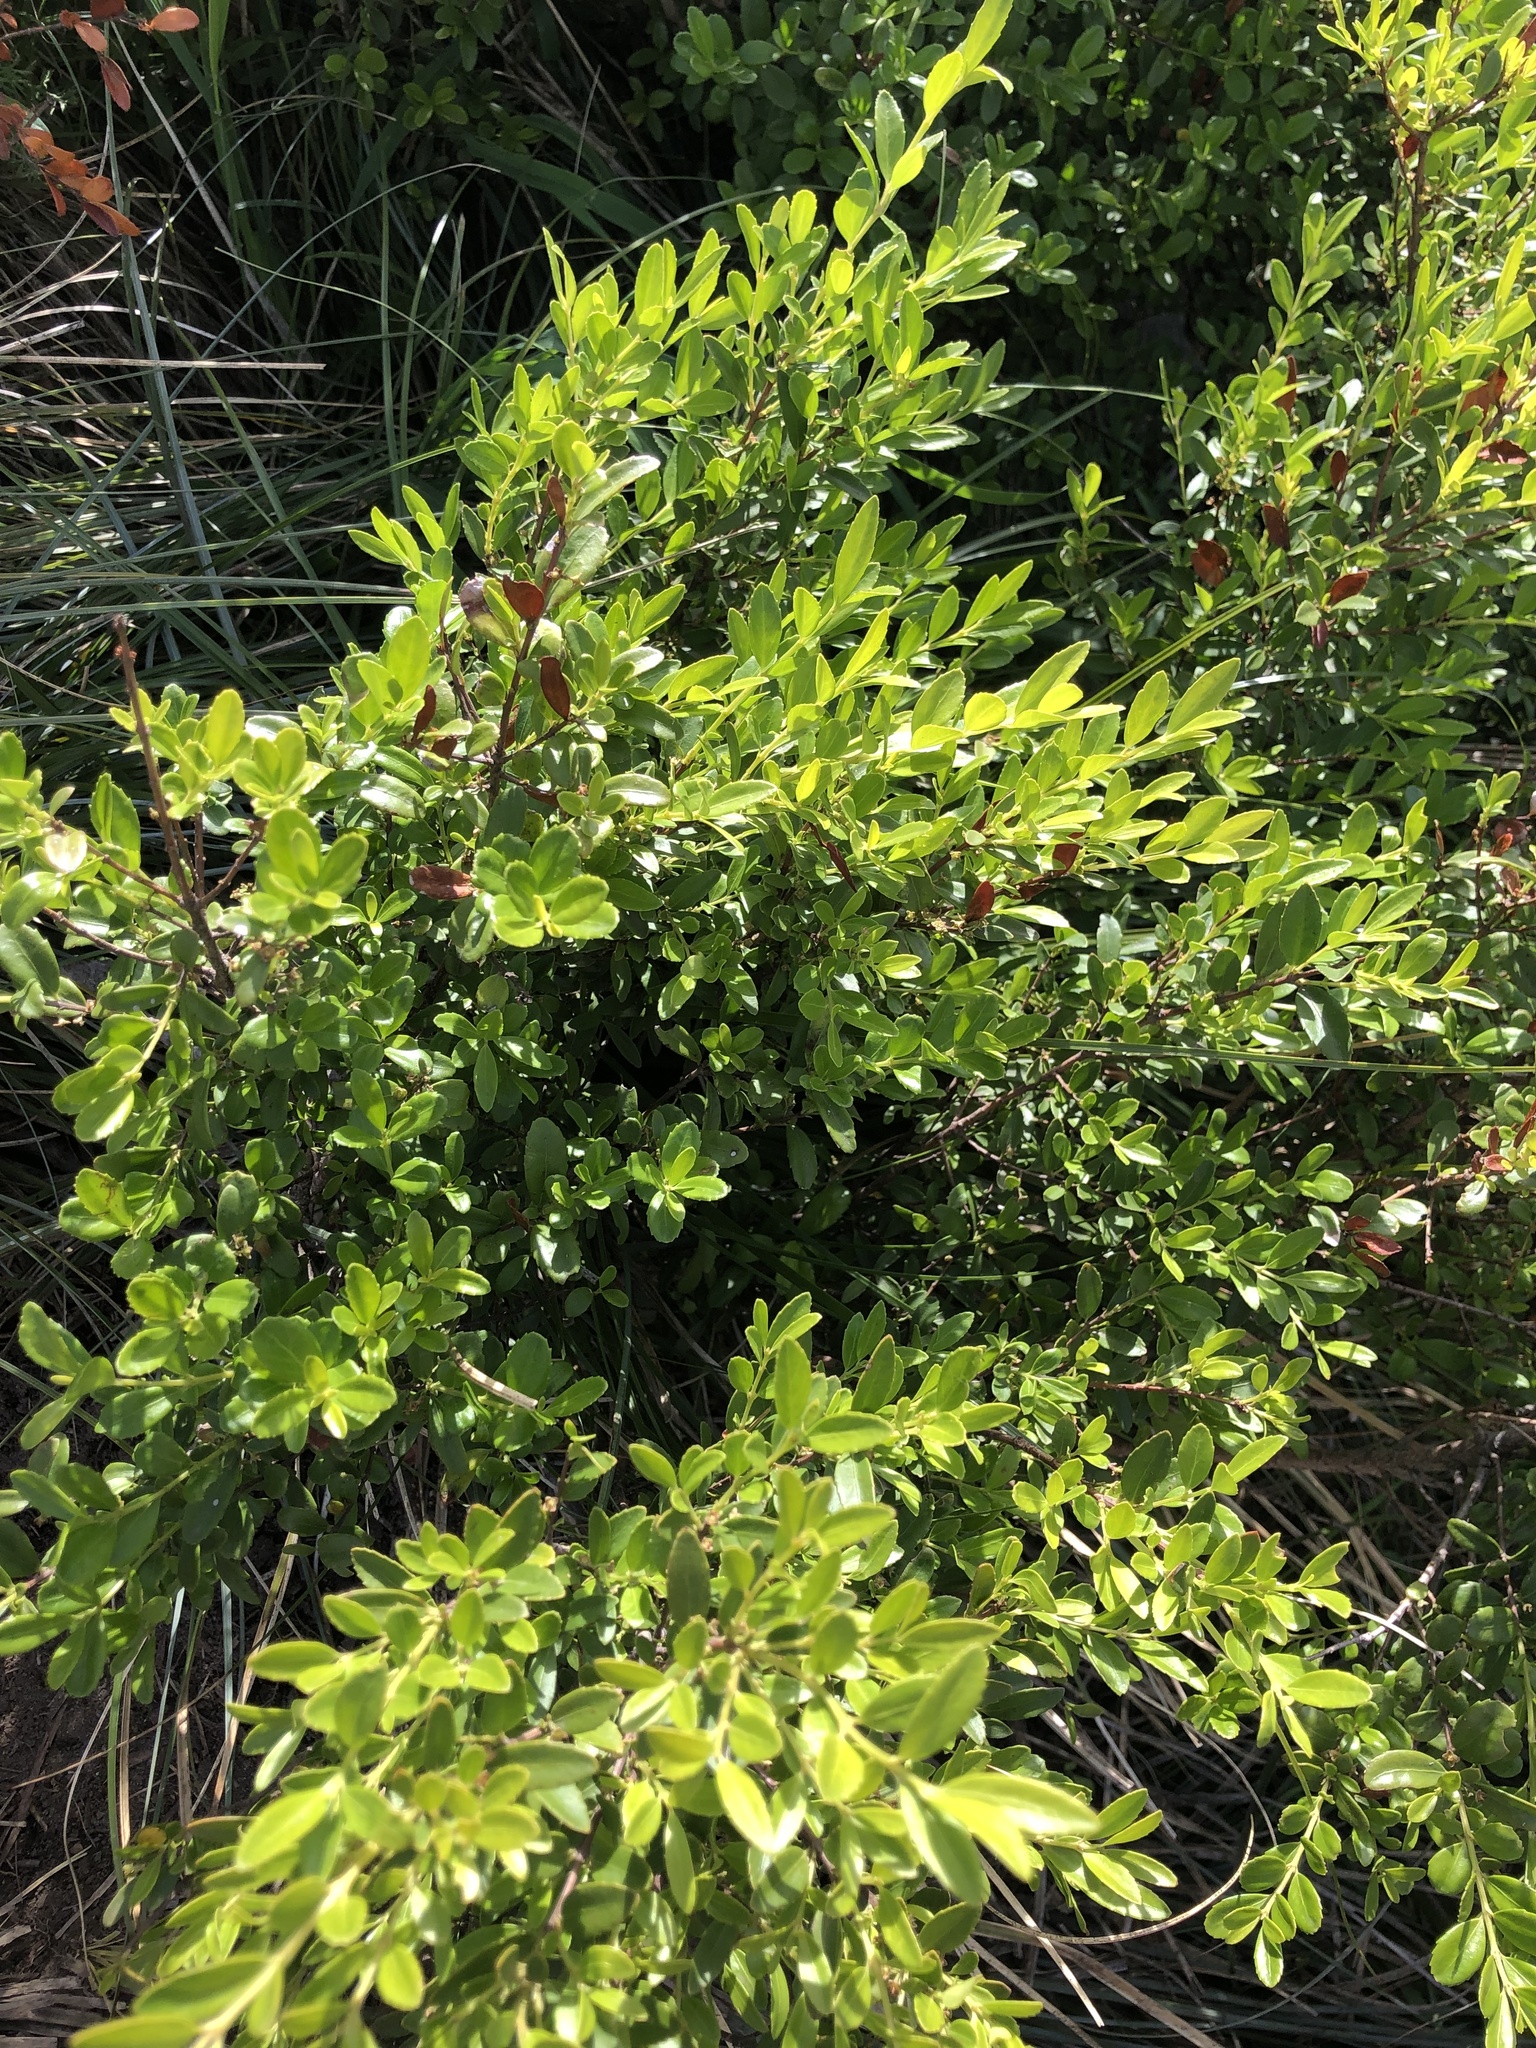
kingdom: Plantae
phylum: Tracheophyta
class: Magnoliopsida
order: Celastrales
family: Celastraceae
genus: Paxistima
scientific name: Paxistima myrsinites
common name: Mountain-lover
